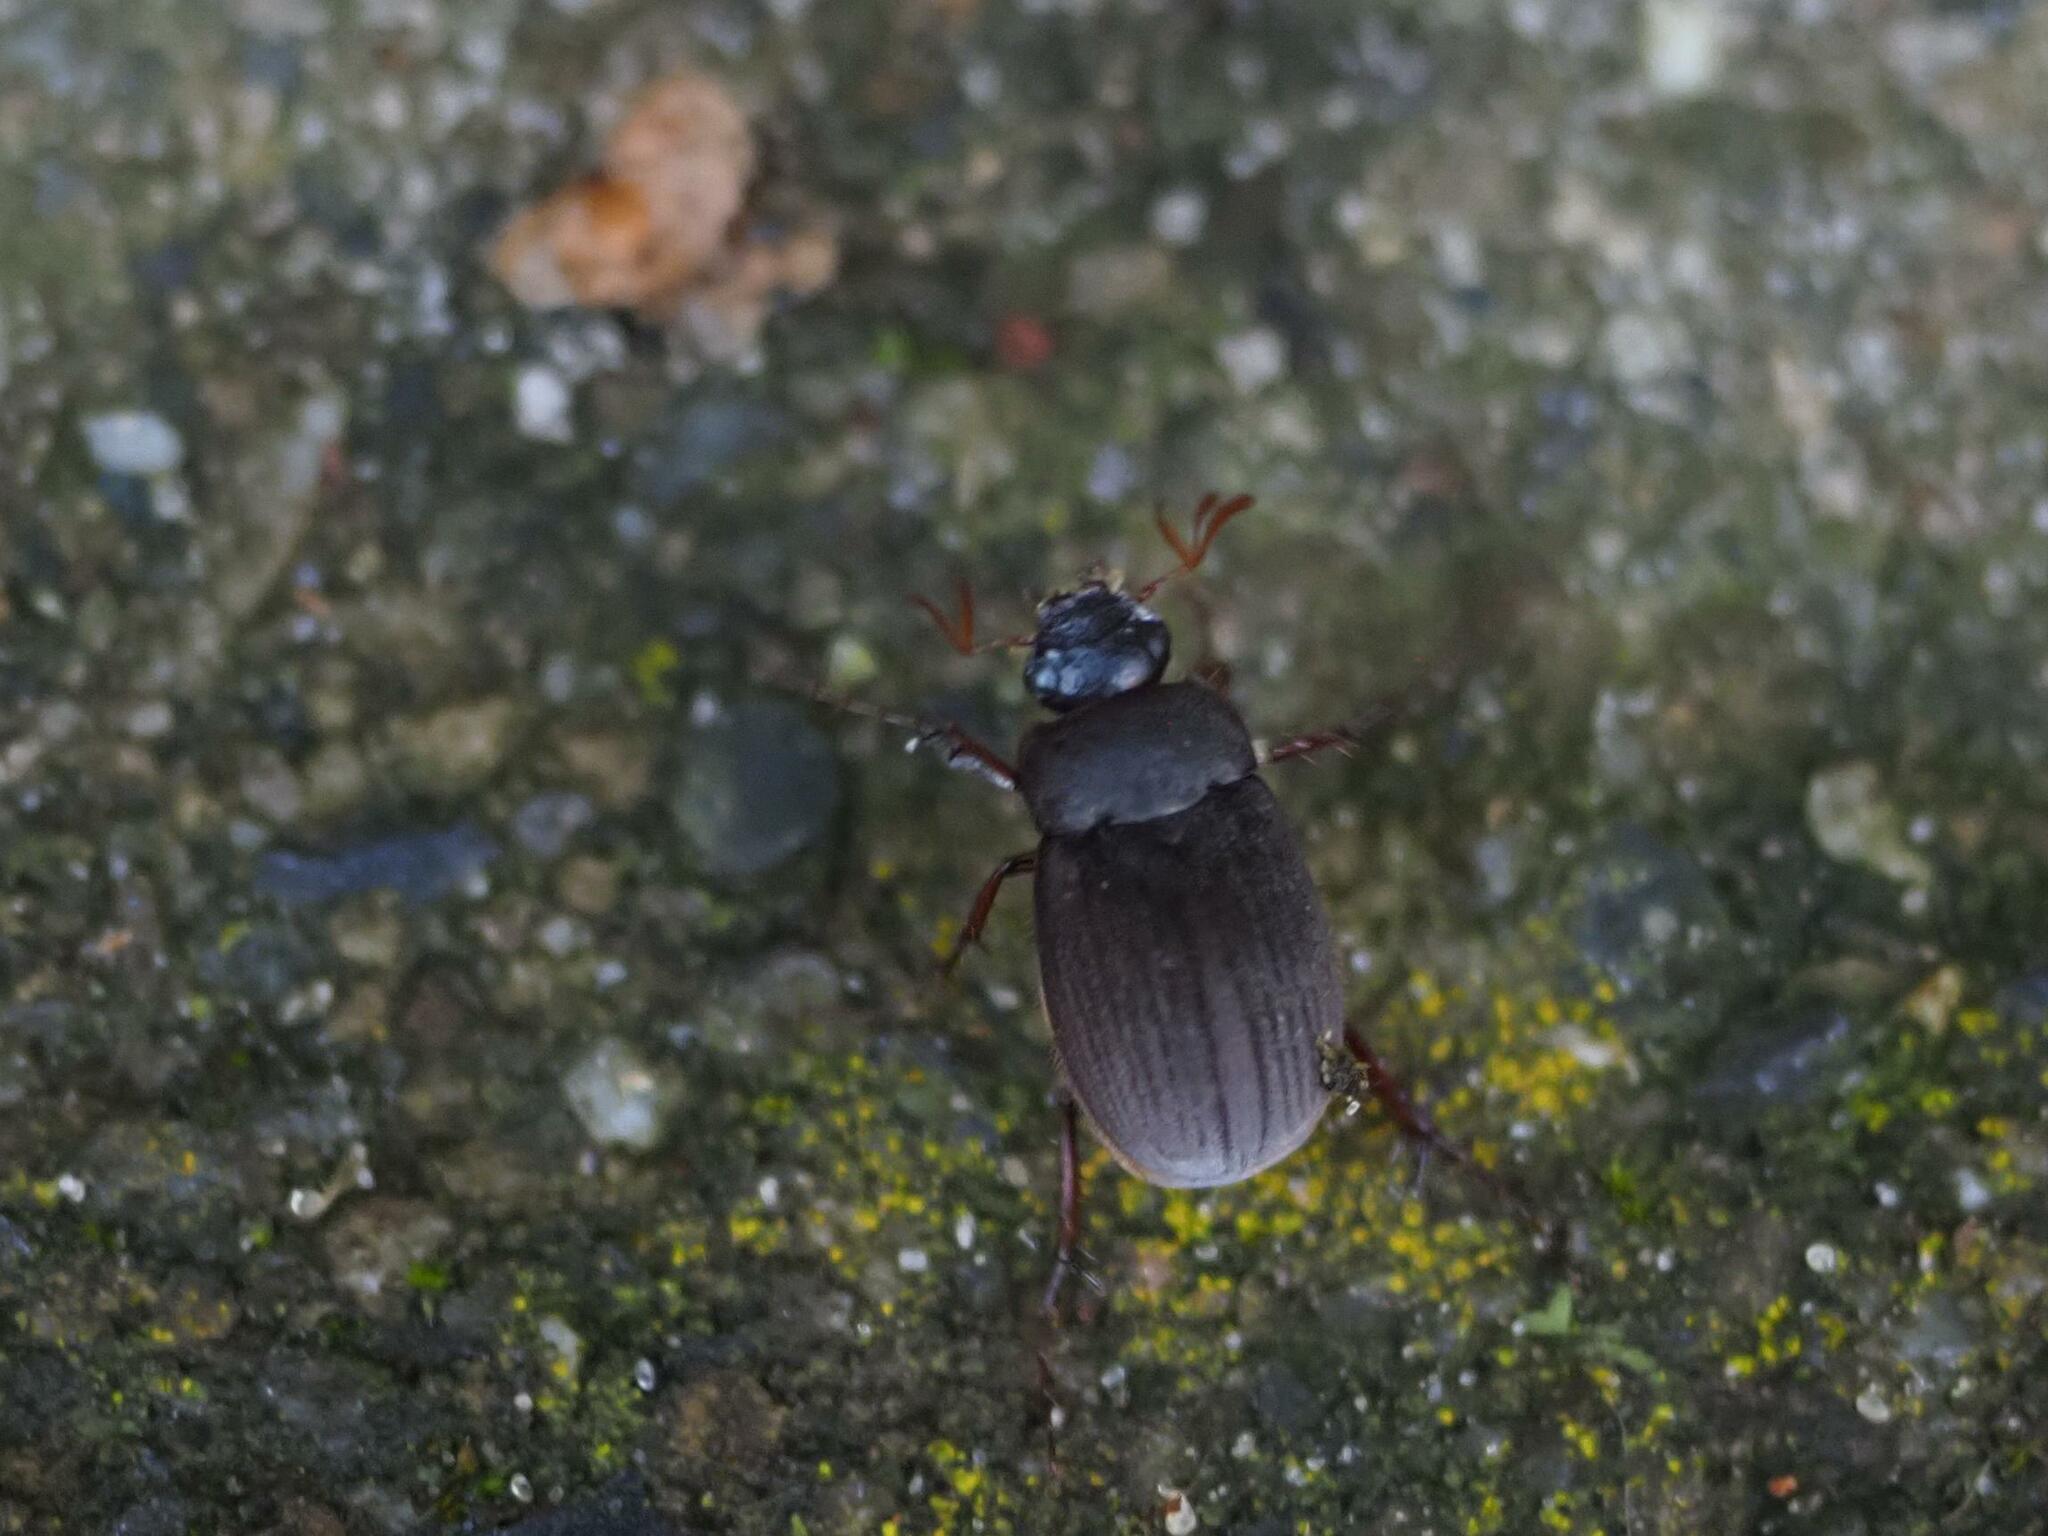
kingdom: Animalia
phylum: Arthropoda
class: Insecta
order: Coleoptera
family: Scarabaeidae
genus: Maladera
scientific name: Maladera holosericea
